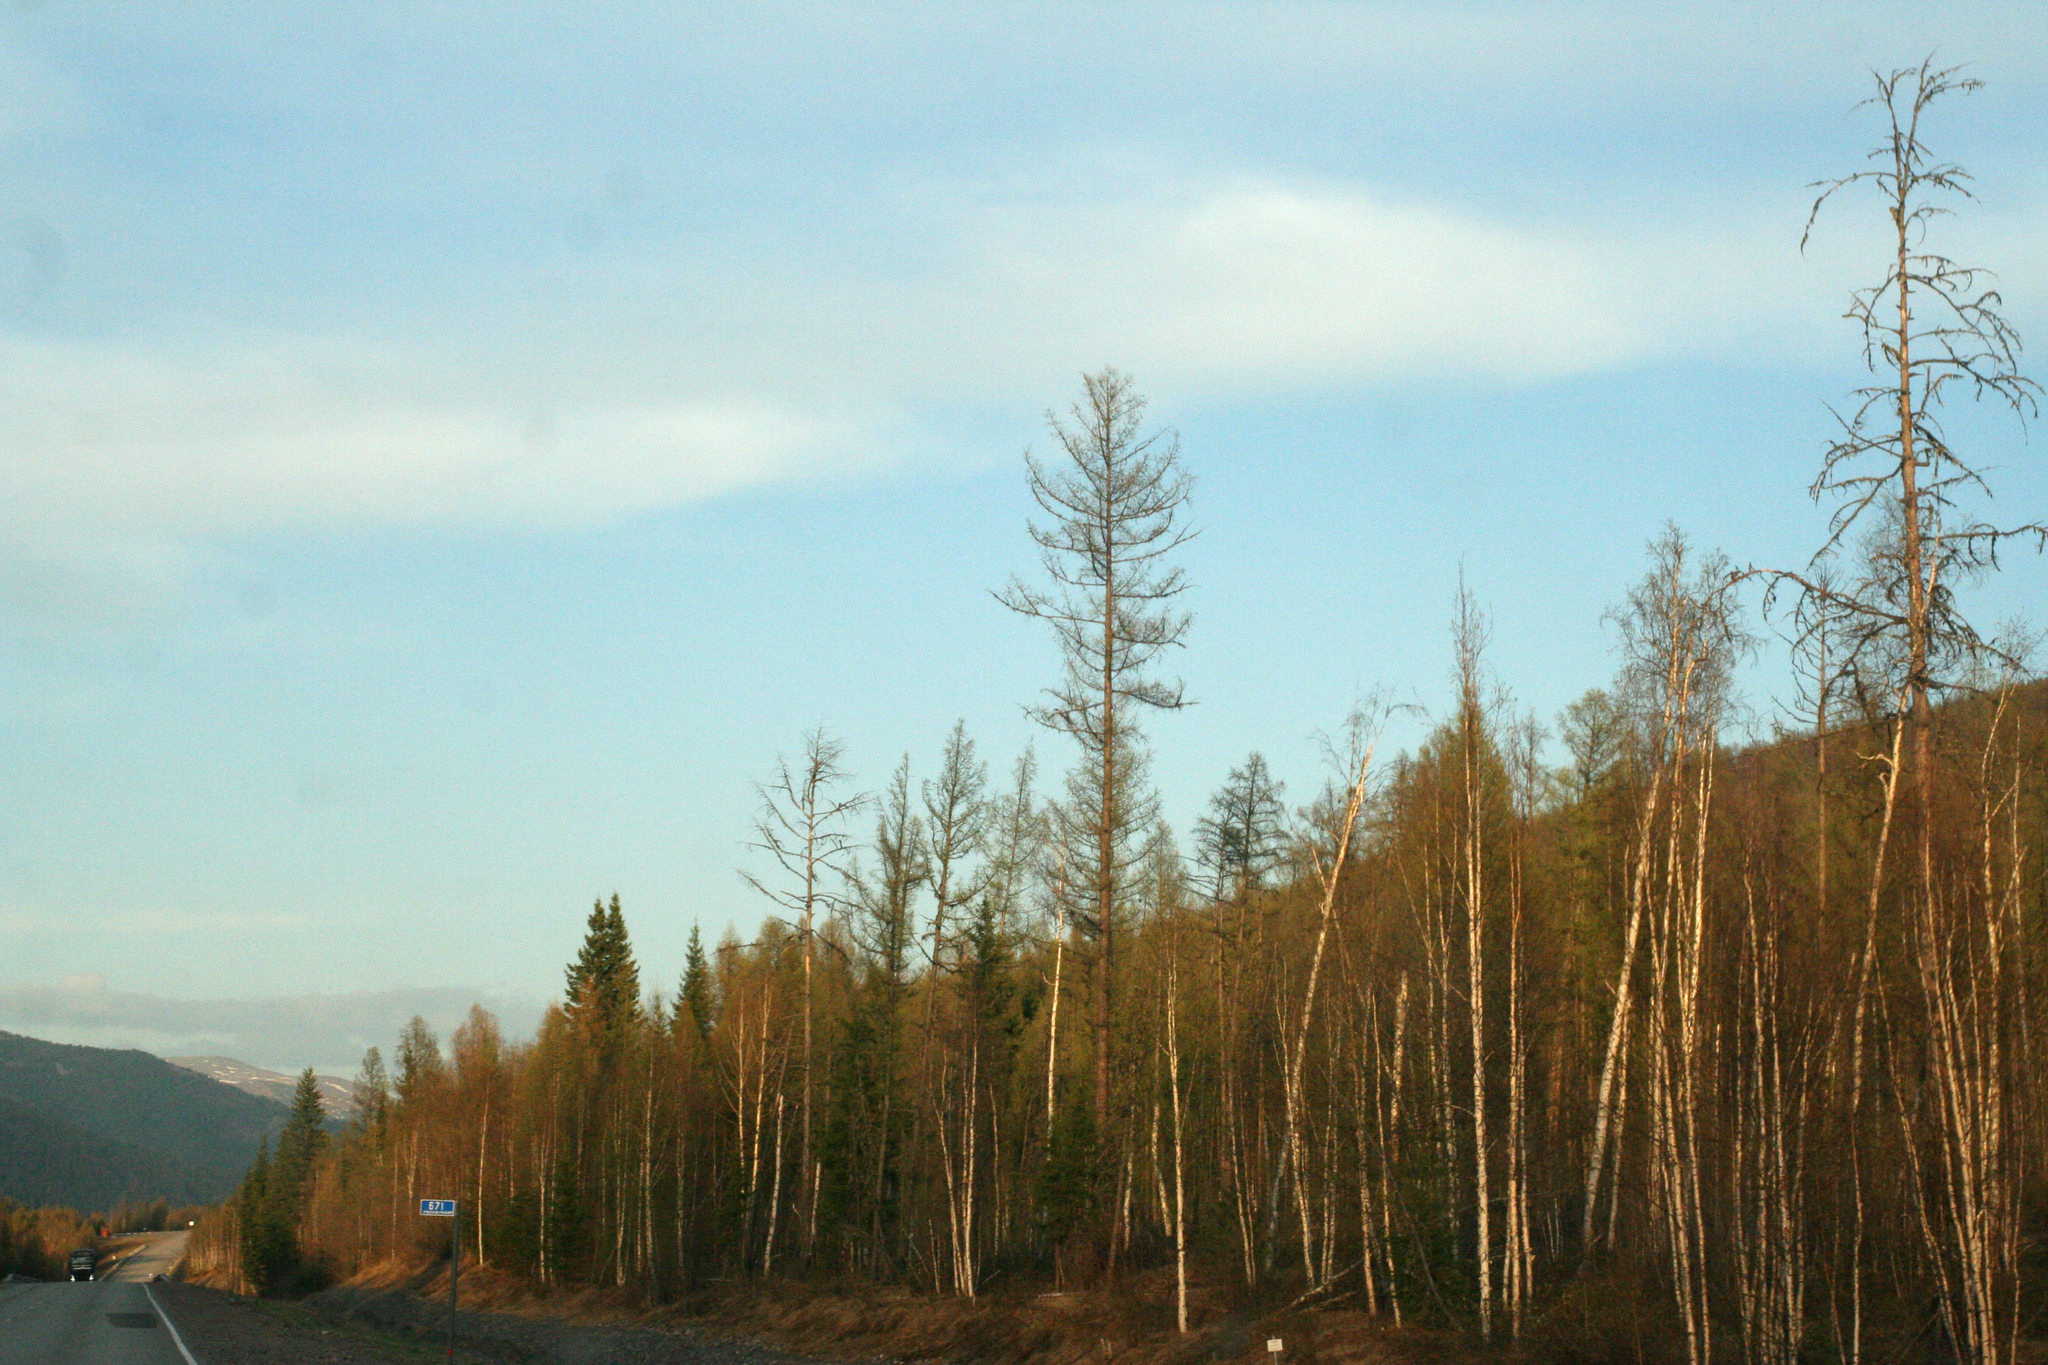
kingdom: Plantae
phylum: Tracheophyta
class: Pinopsida
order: Pinales
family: Pinaceae
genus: Larix
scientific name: Larix sibirica
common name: Siberian larch
